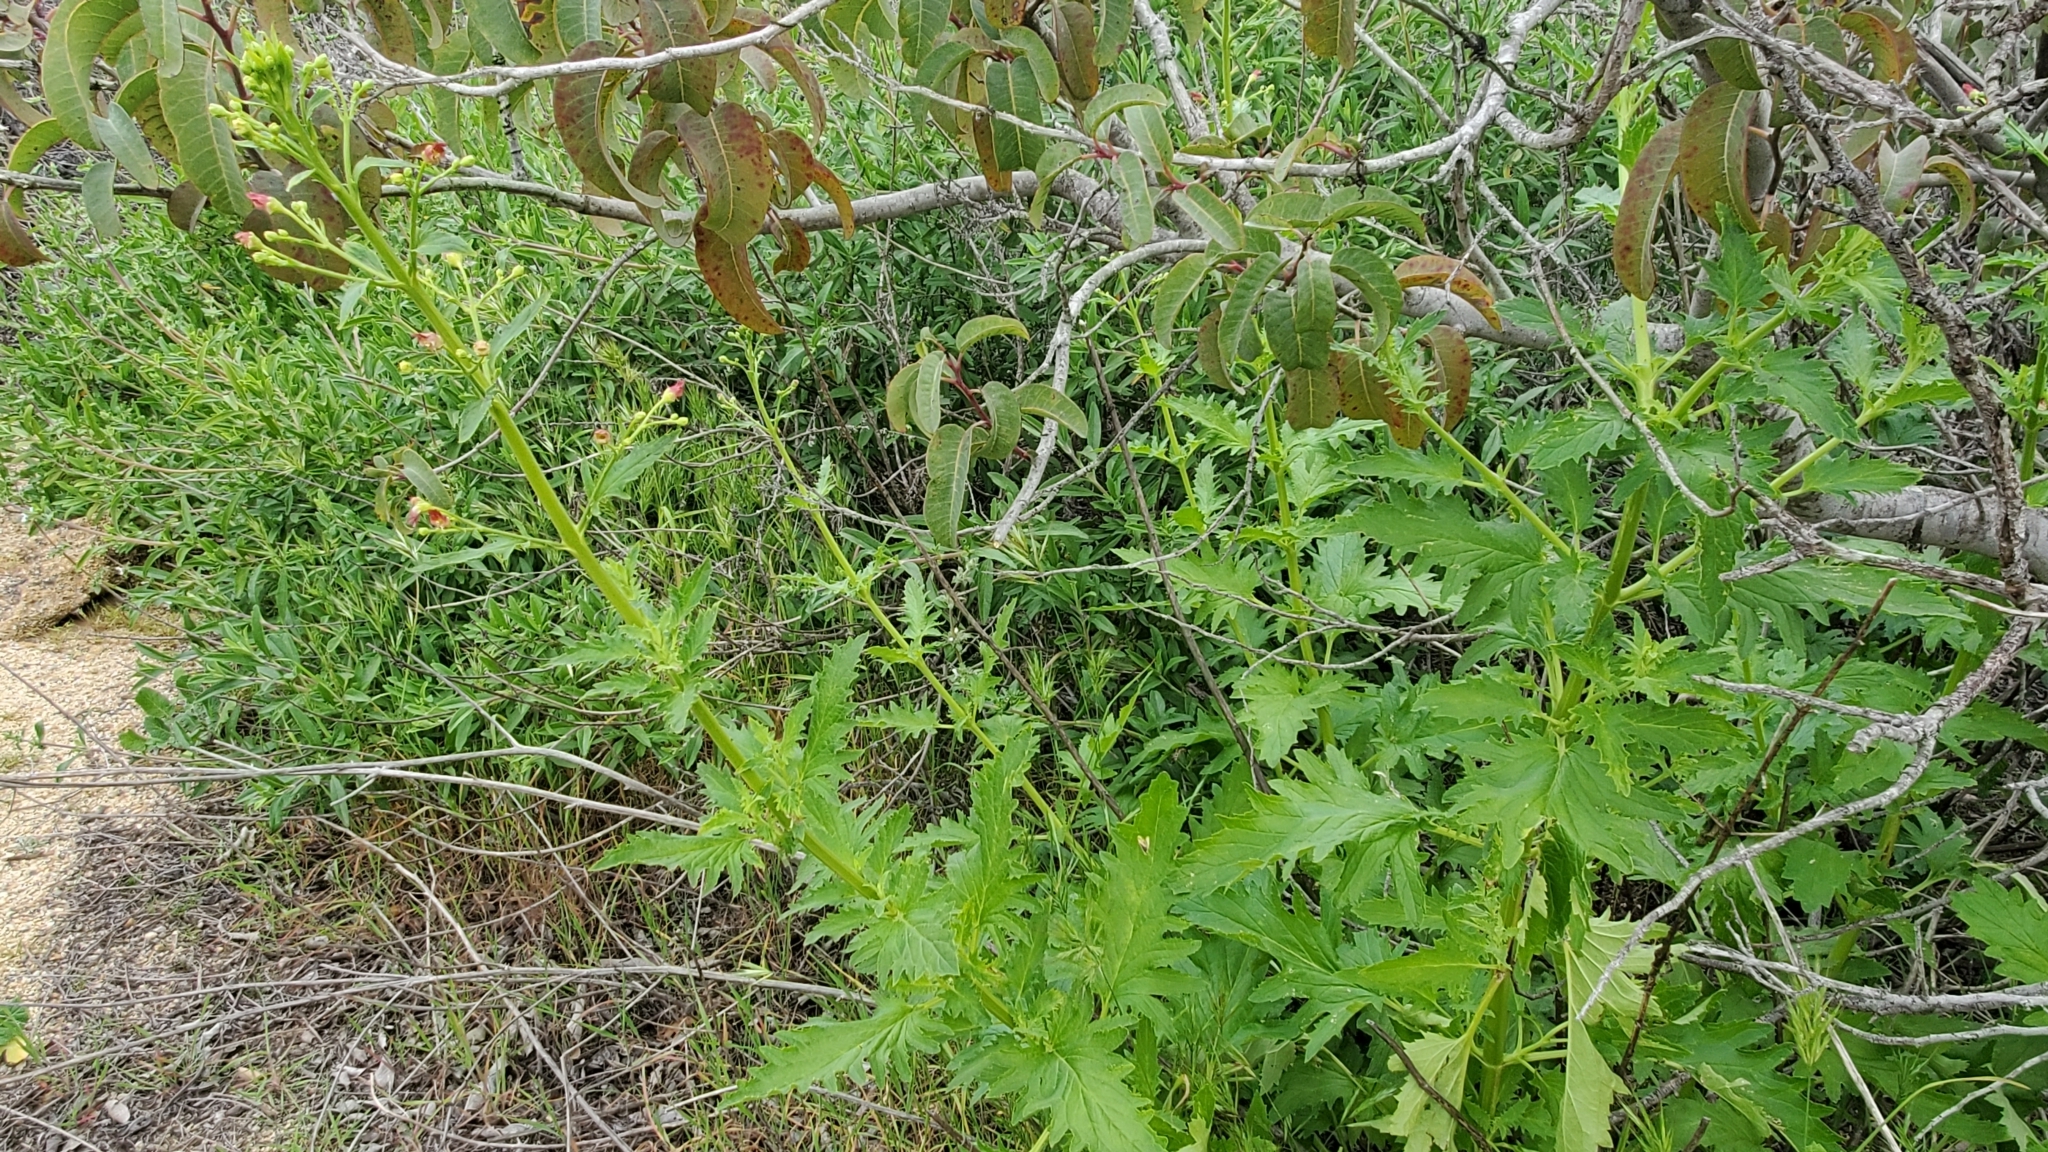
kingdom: Plantae
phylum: Tracheophyta
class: Magnoliopsida
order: Lamiales
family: Scrophulariaceae
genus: Scrophularia
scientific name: Scrophularia californica
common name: California figwort
